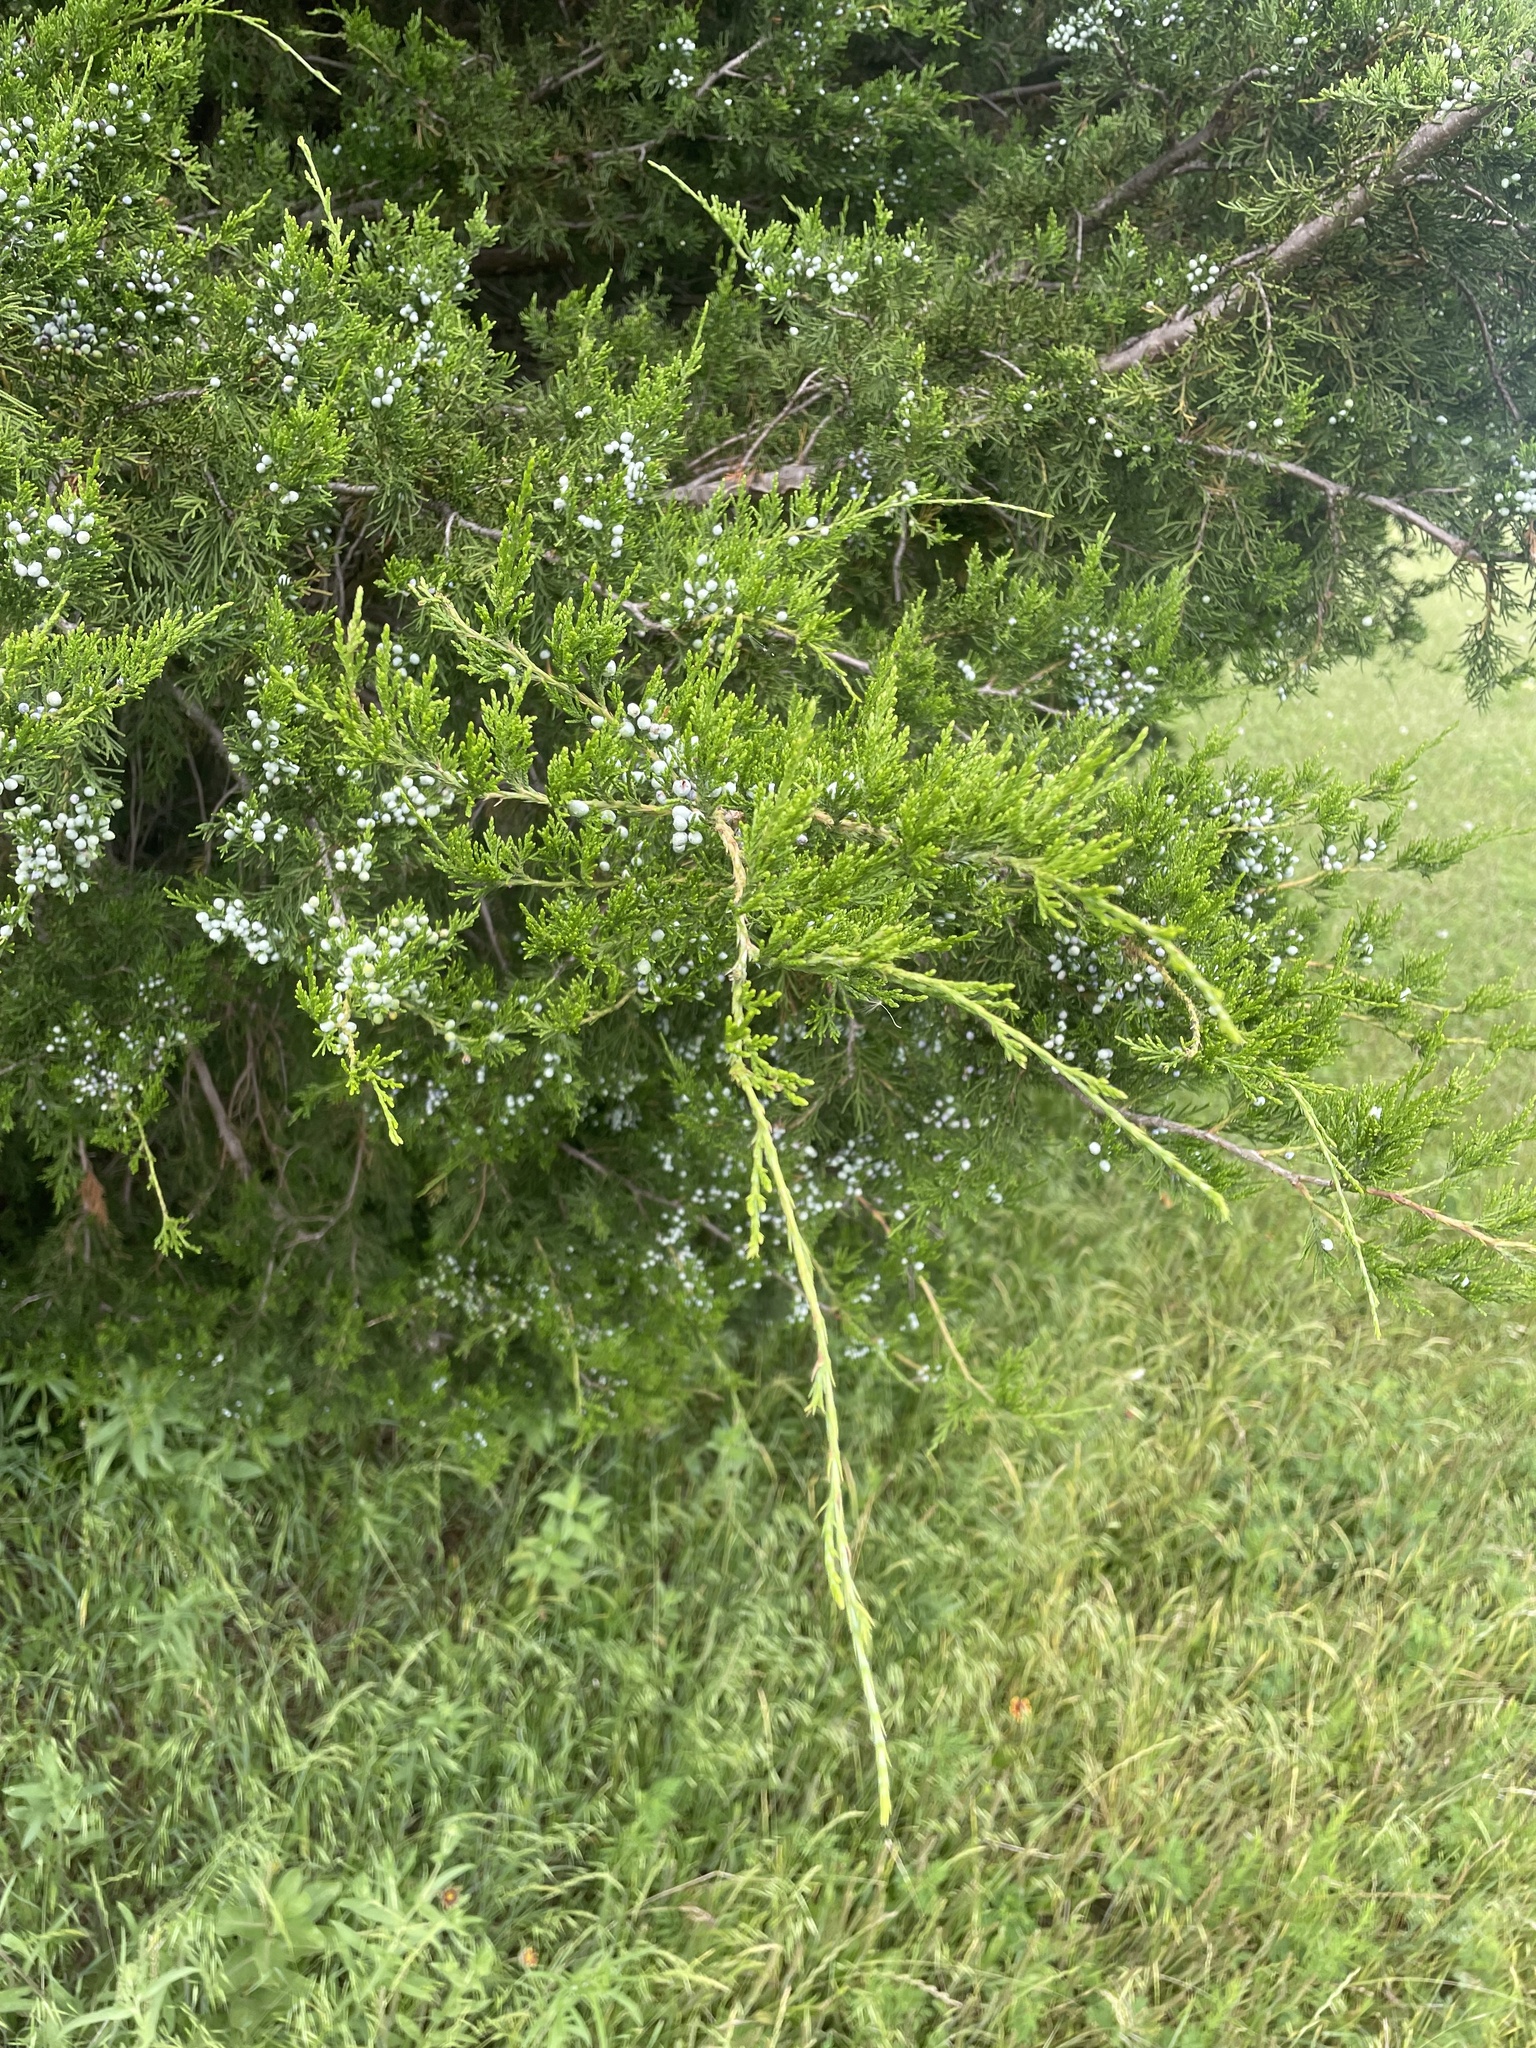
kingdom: Plantae
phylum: Tracheophyta
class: Pinopsida
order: Pinales
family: Cupressaceae
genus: Juniperus
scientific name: Juniperus virginiana
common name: Red juniper
